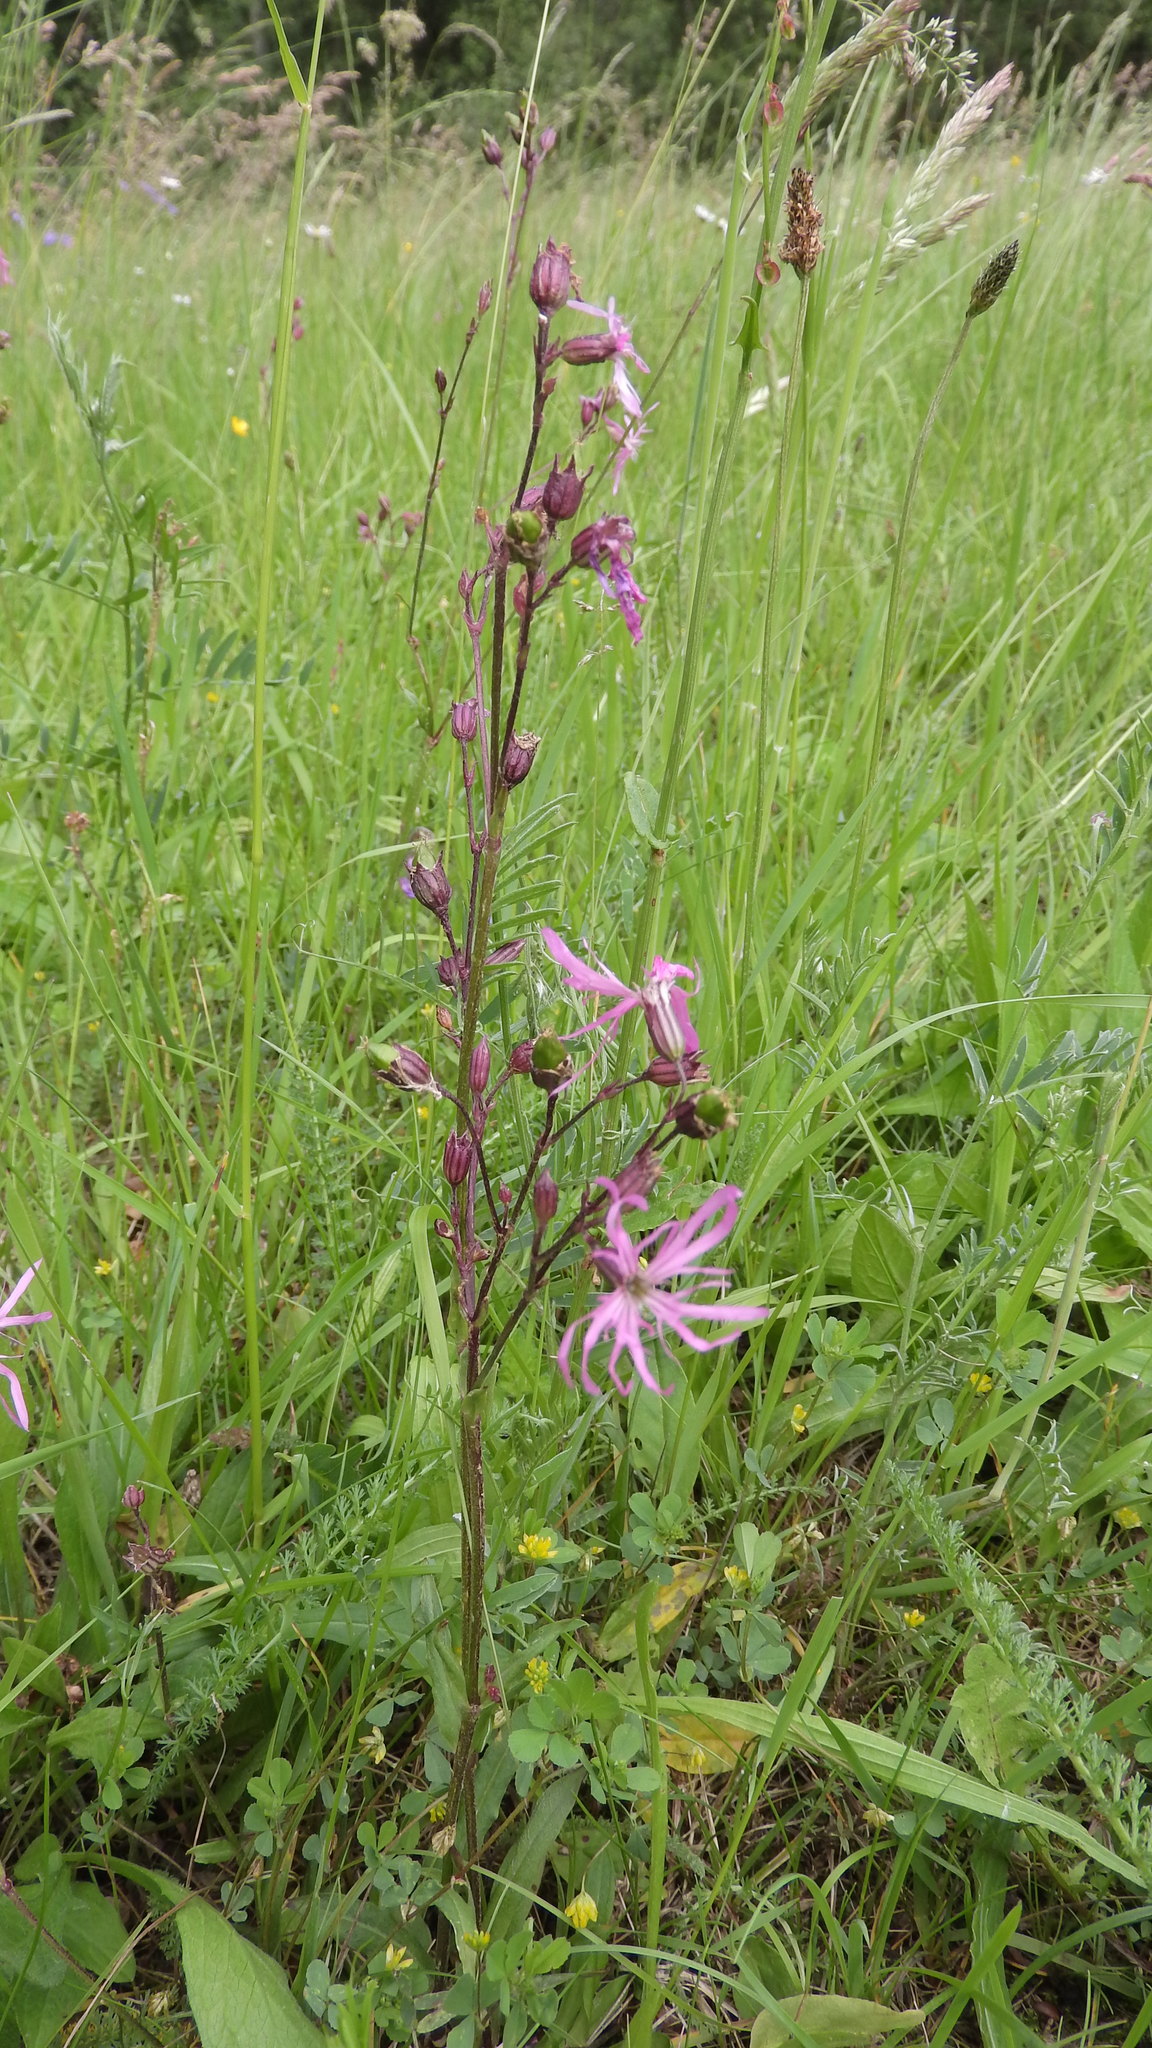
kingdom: Plantae
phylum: Tracheophyta
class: Magnoliopsida
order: Caryophyllales
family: Caryophyllaceae
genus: Silene
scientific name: Silene flos-cuculi
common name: Ragged-robin
